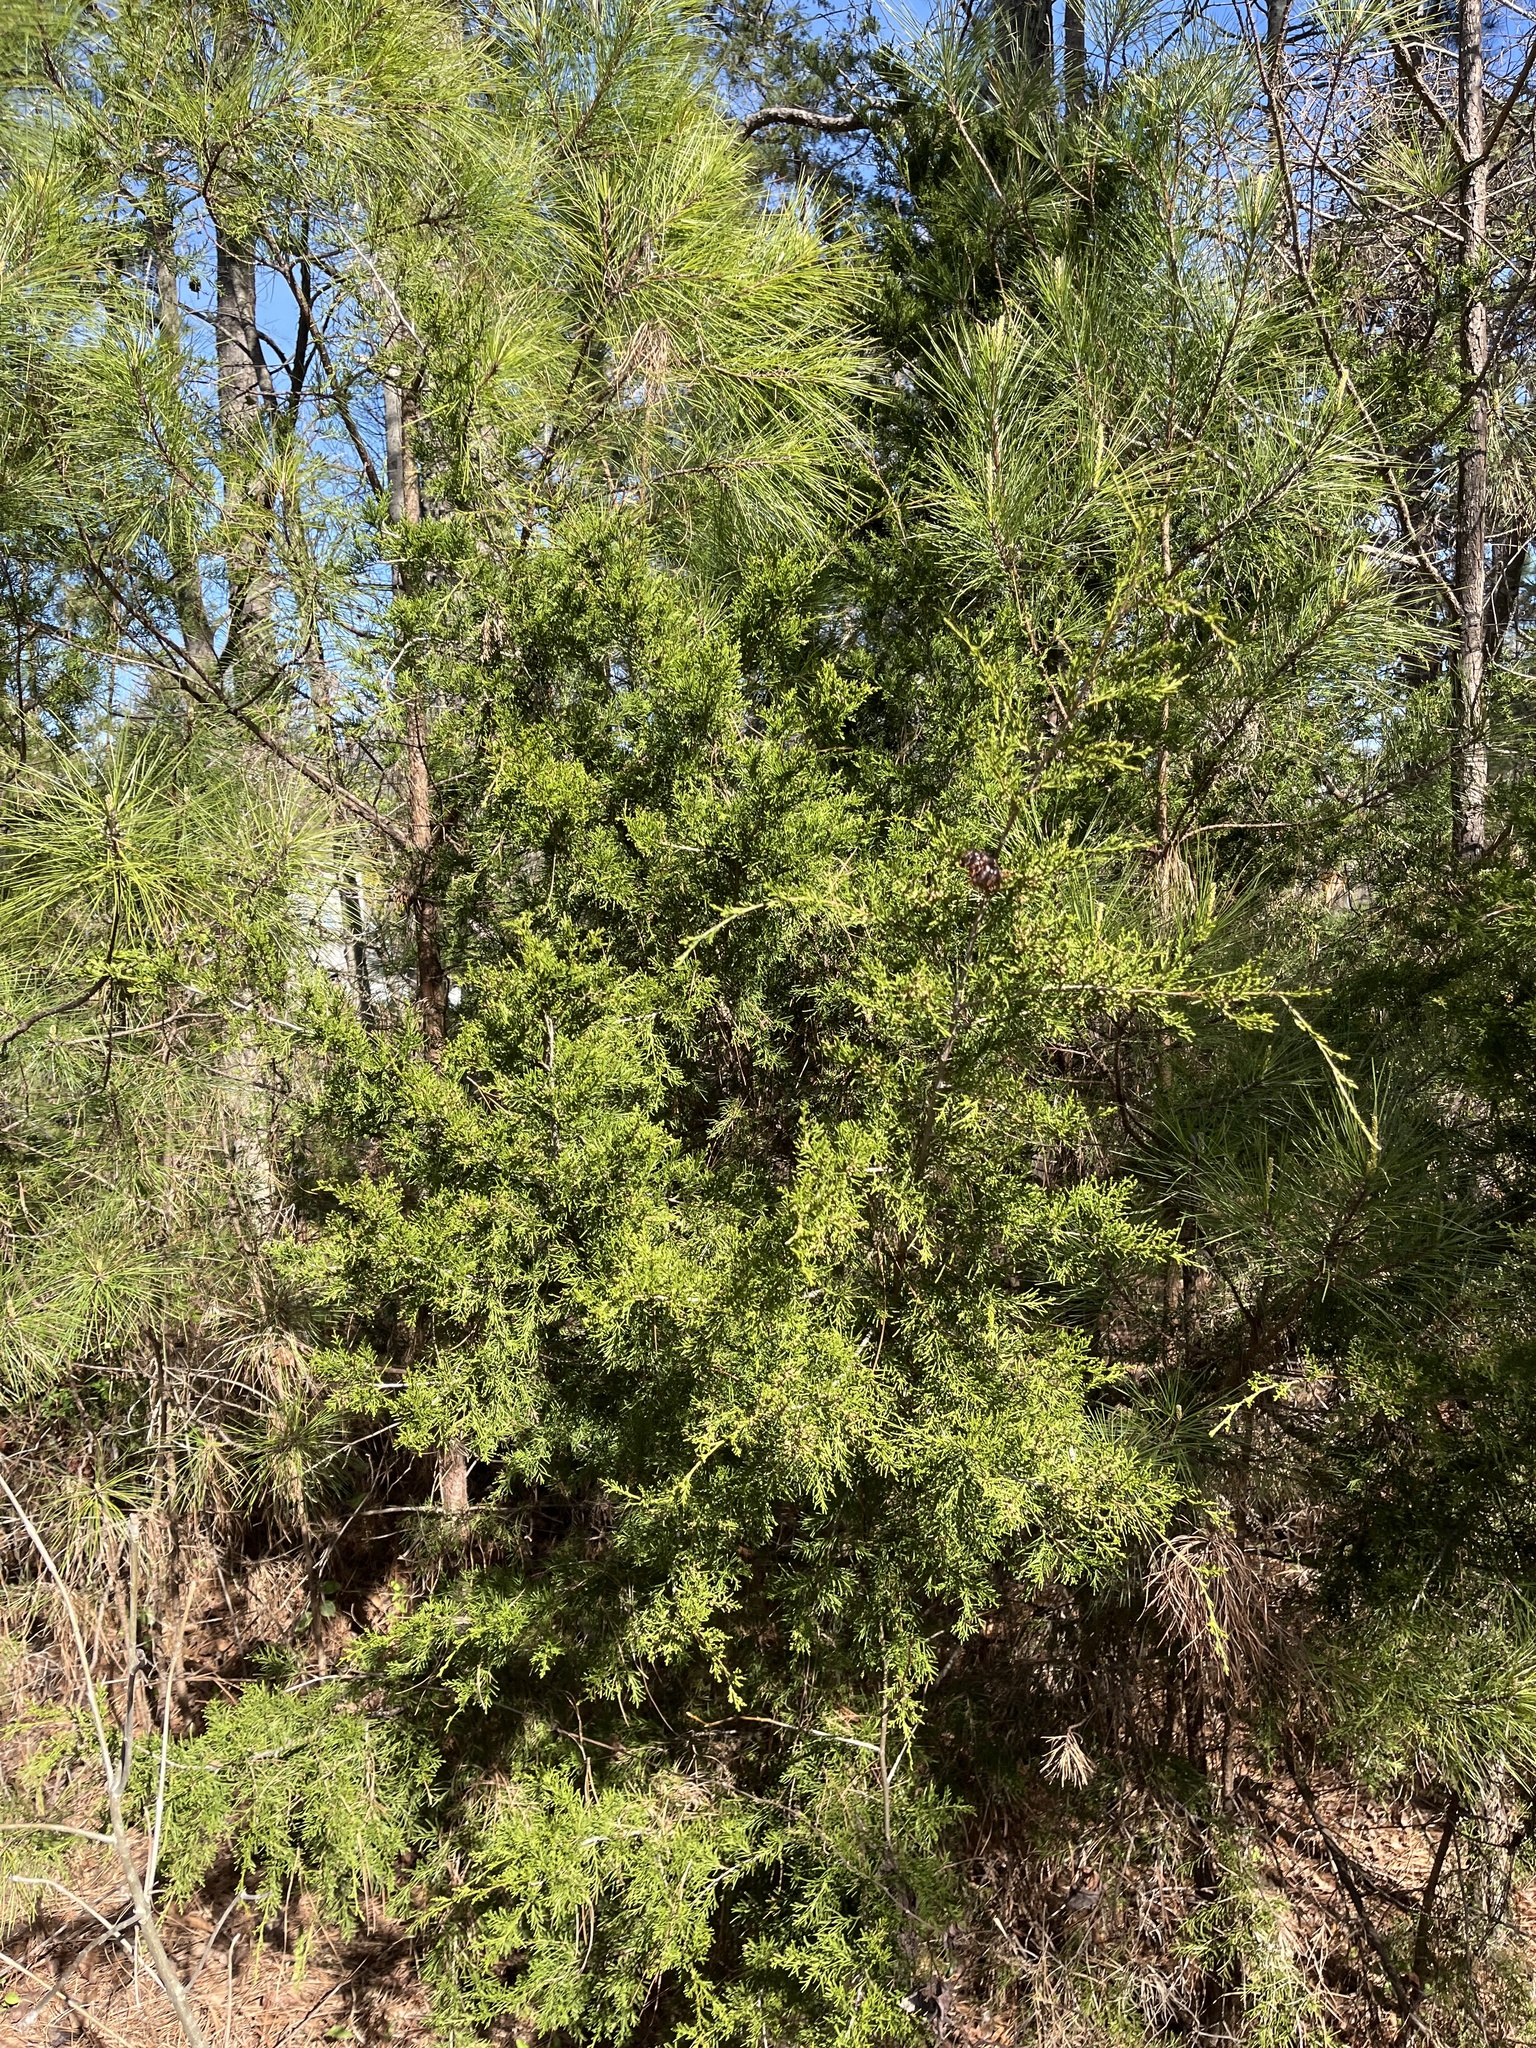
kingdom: Plantae
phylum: Tracheophyta
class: Pinopsida
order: Pinales
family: Cupressaceae
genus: Juniperus
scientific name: Juniperus virginiana
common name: Red juniper
